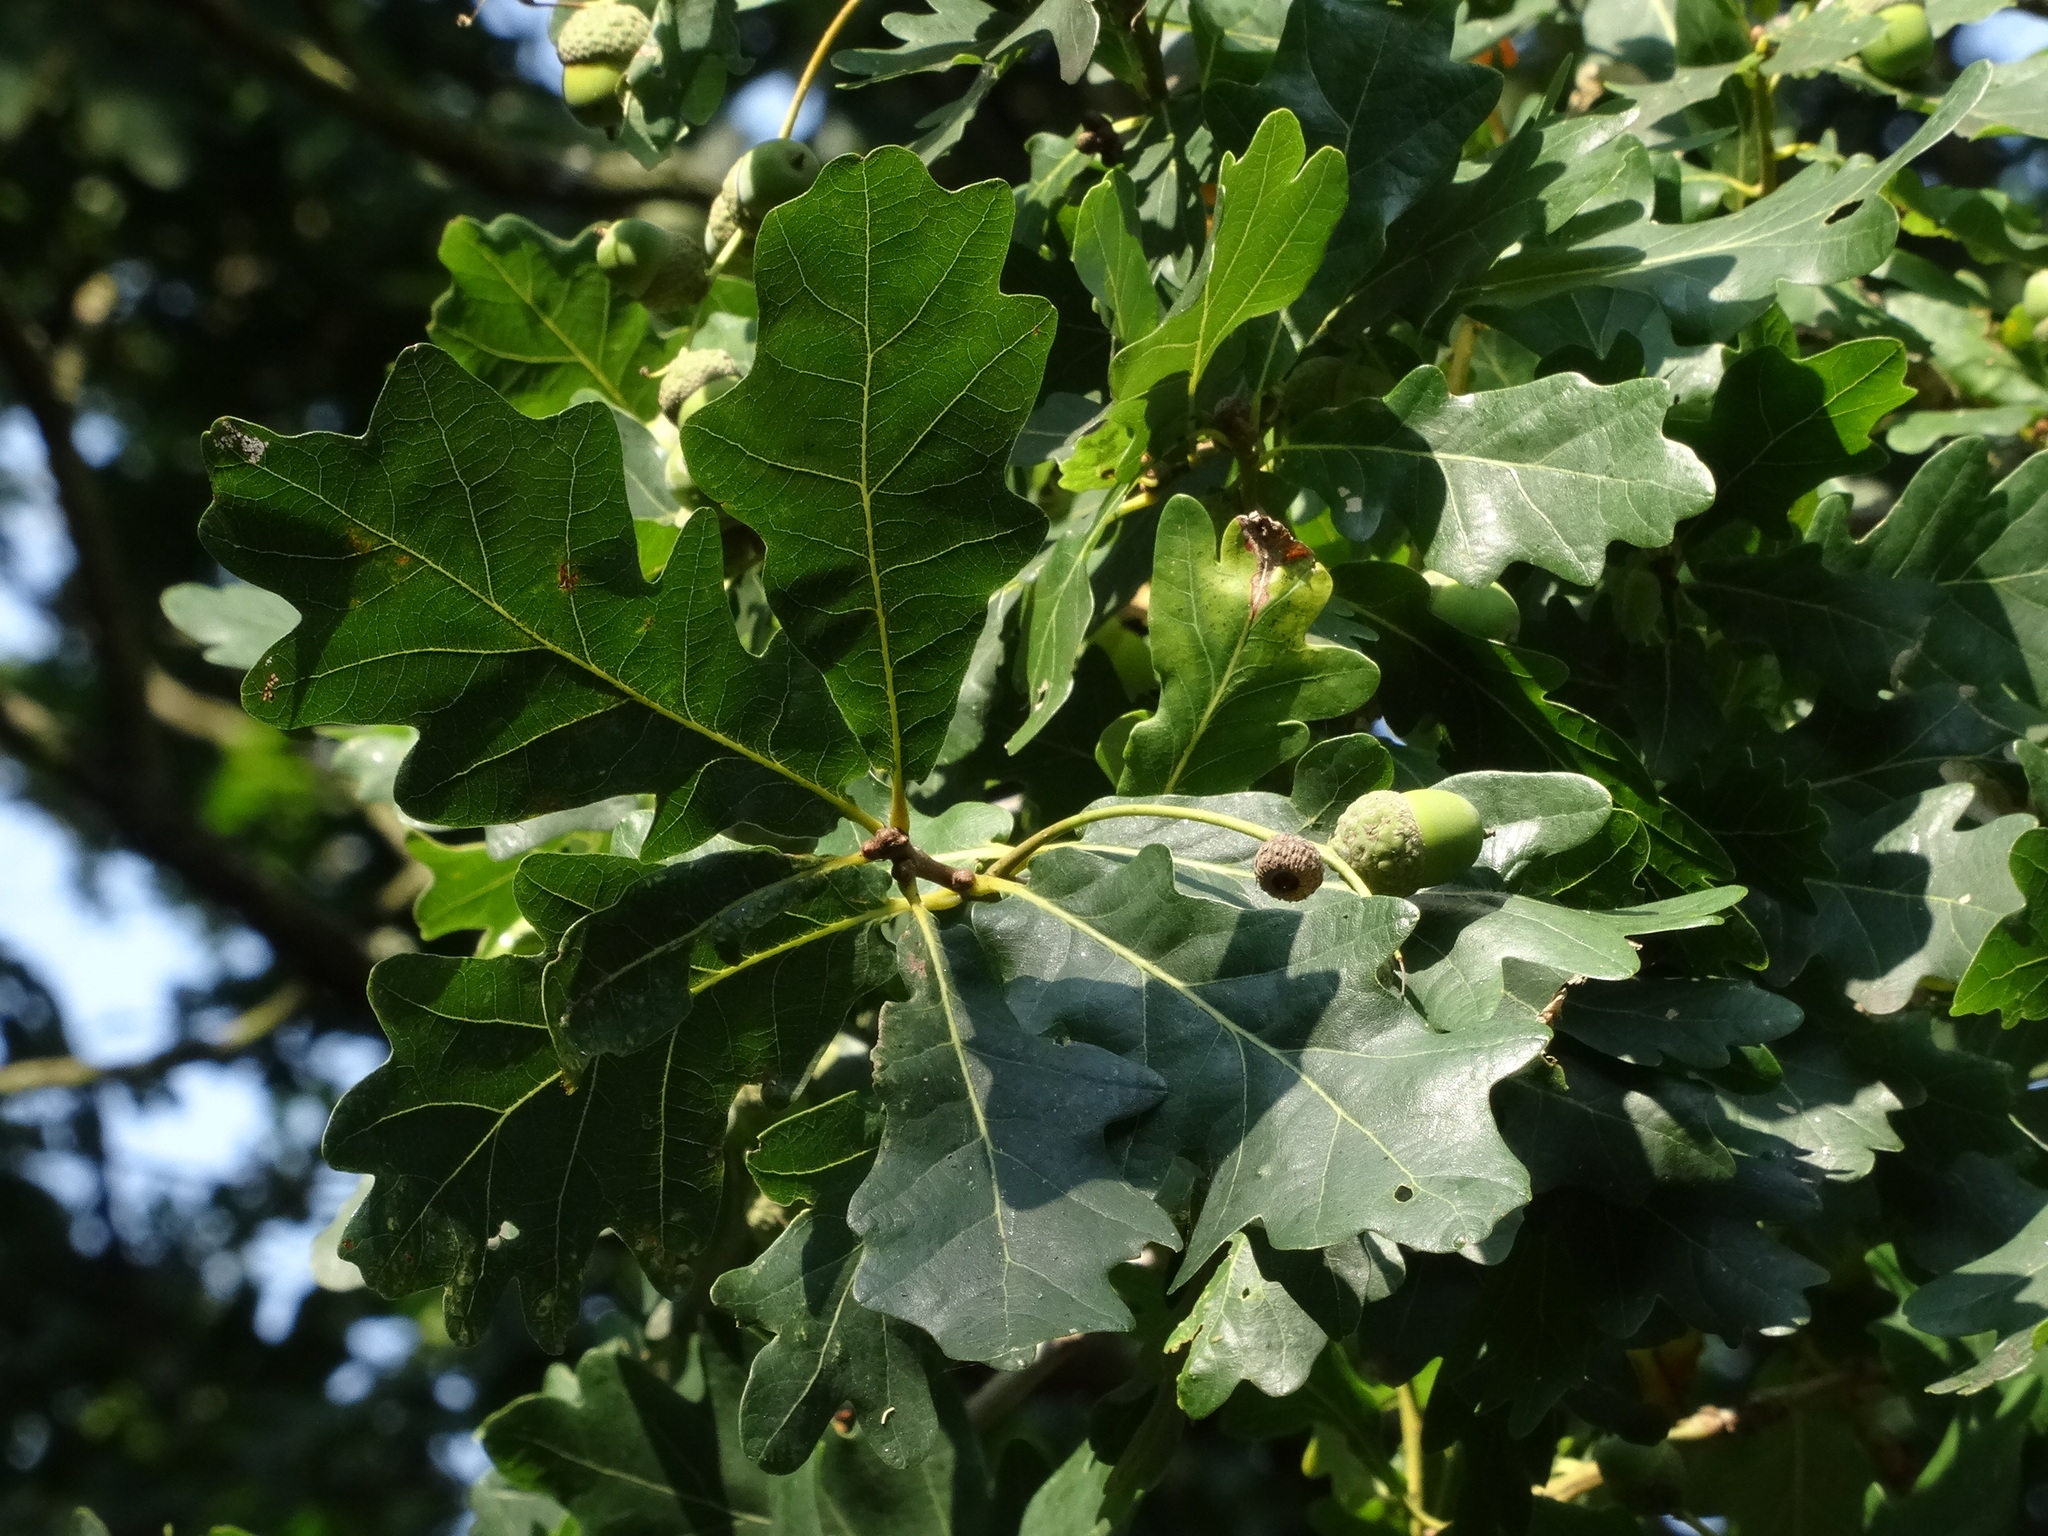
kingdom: Plantae
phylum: Tracheophyta
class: Magnoliopsida
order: Fagales
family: Fagaceae
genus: Quercus
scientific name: Quercus robur
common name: Pedunculate oak
